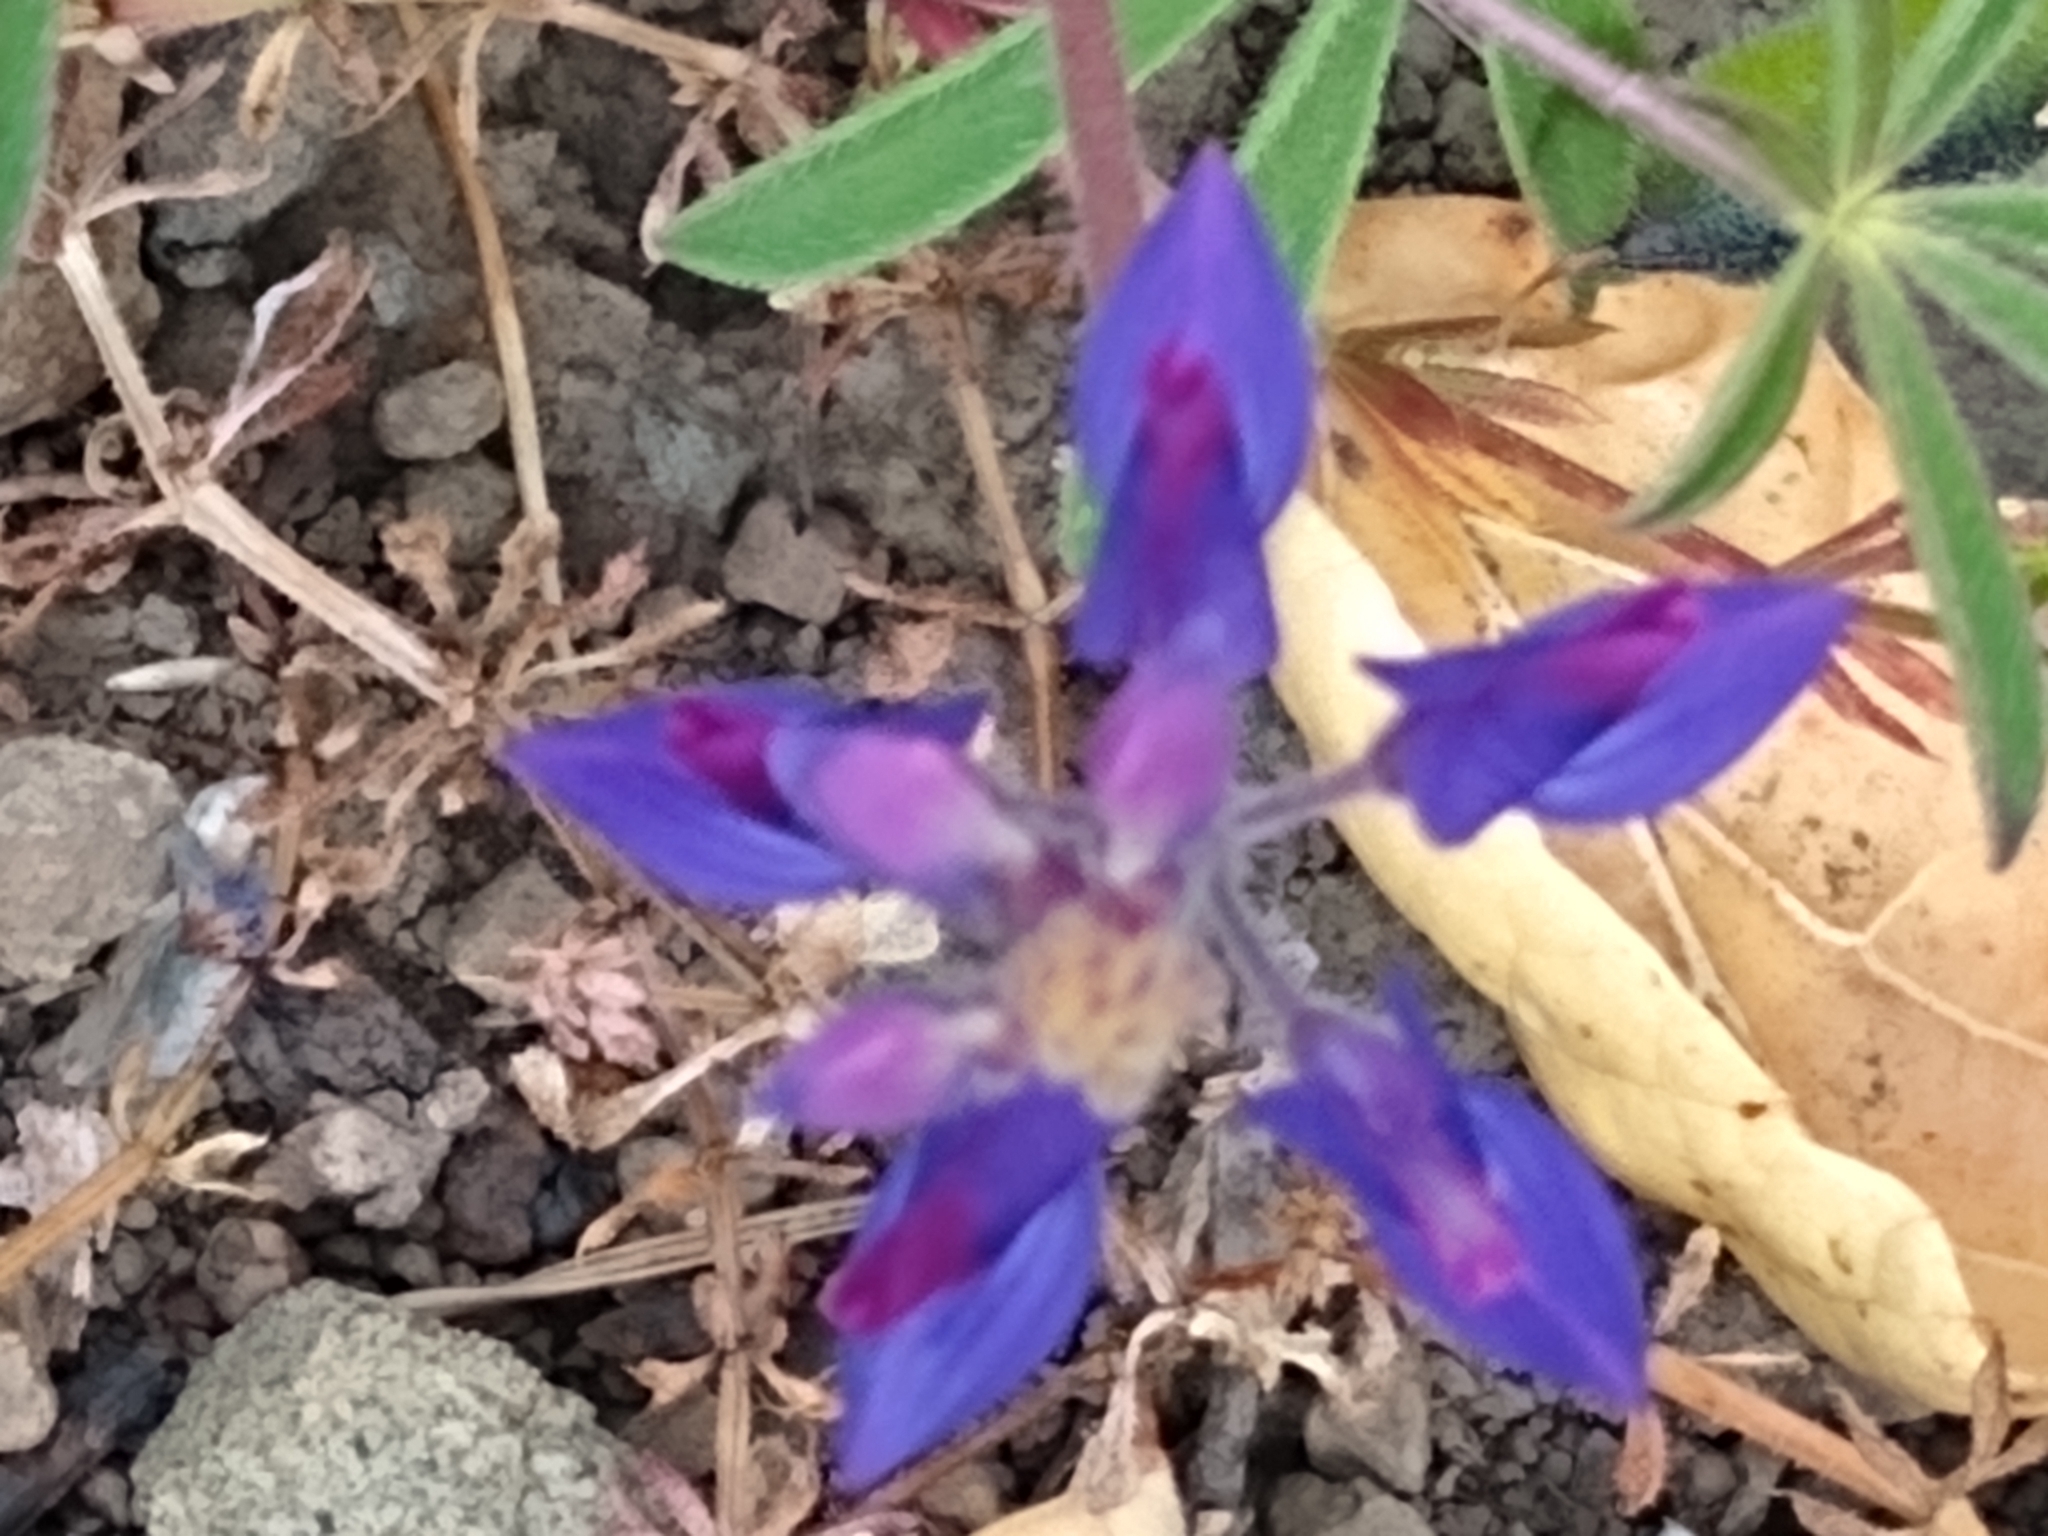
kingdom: Plantae
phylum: Tracheophyta
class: Magnoliopsida
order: Fabales
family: Fabaceae
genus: Lupinus
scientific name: Lupinus nanus
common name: Orean blue lupin
